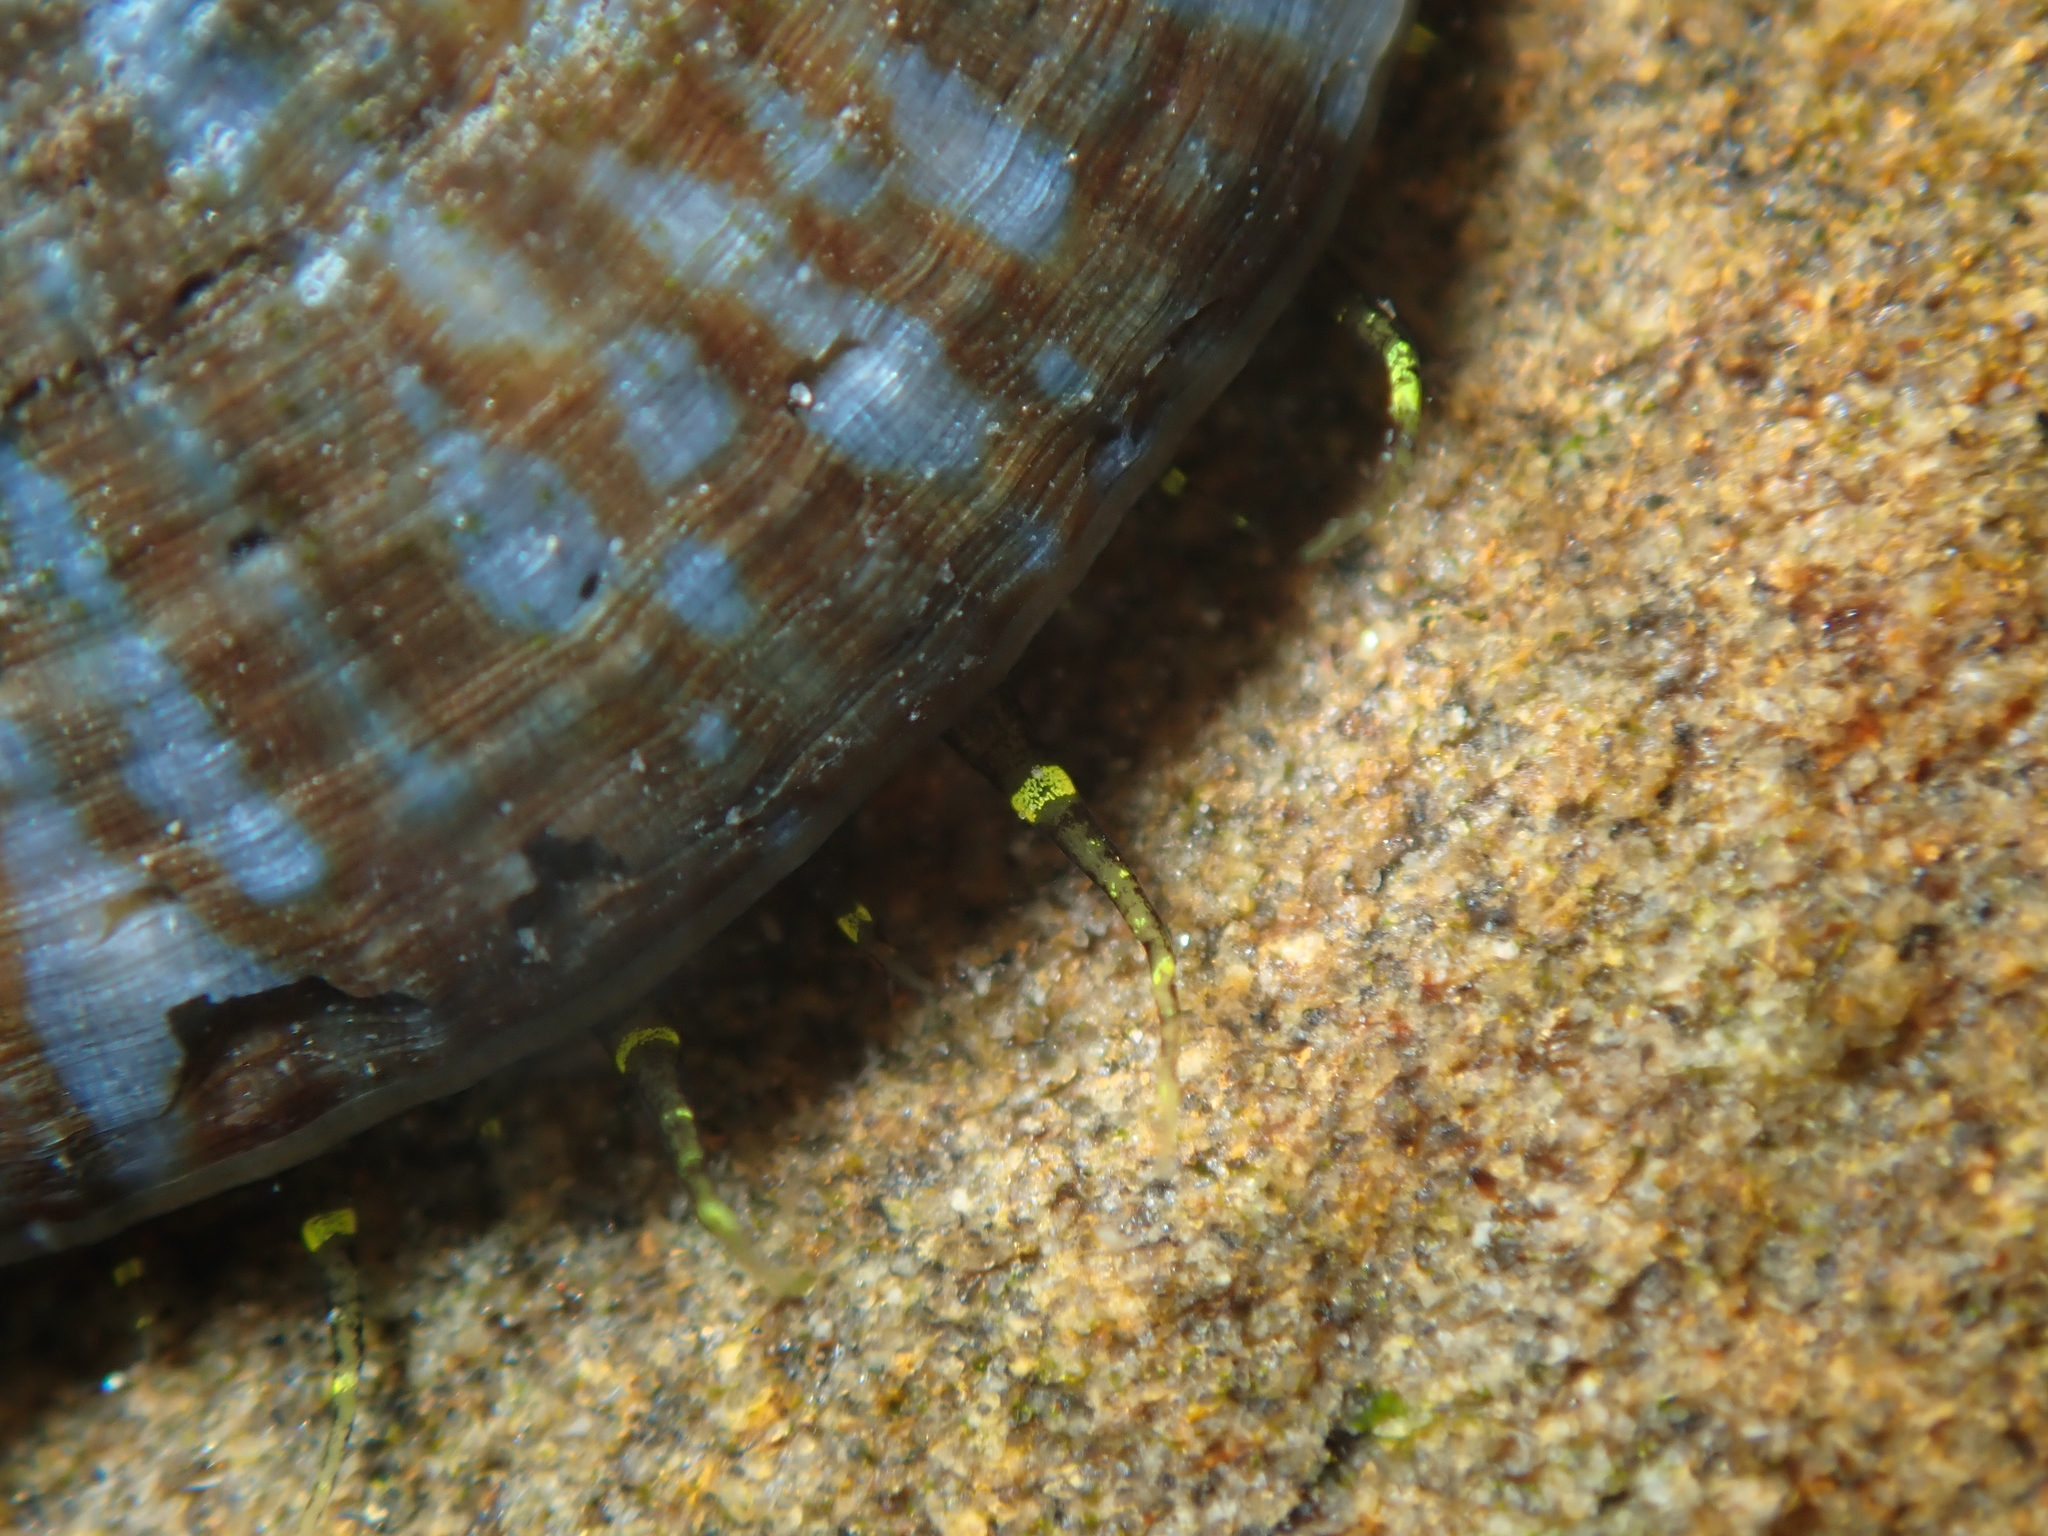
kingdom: Animalia
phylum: Mollusca
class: Gastropoda
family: Nacellidae
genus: Cellana
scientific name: Cellana radians
